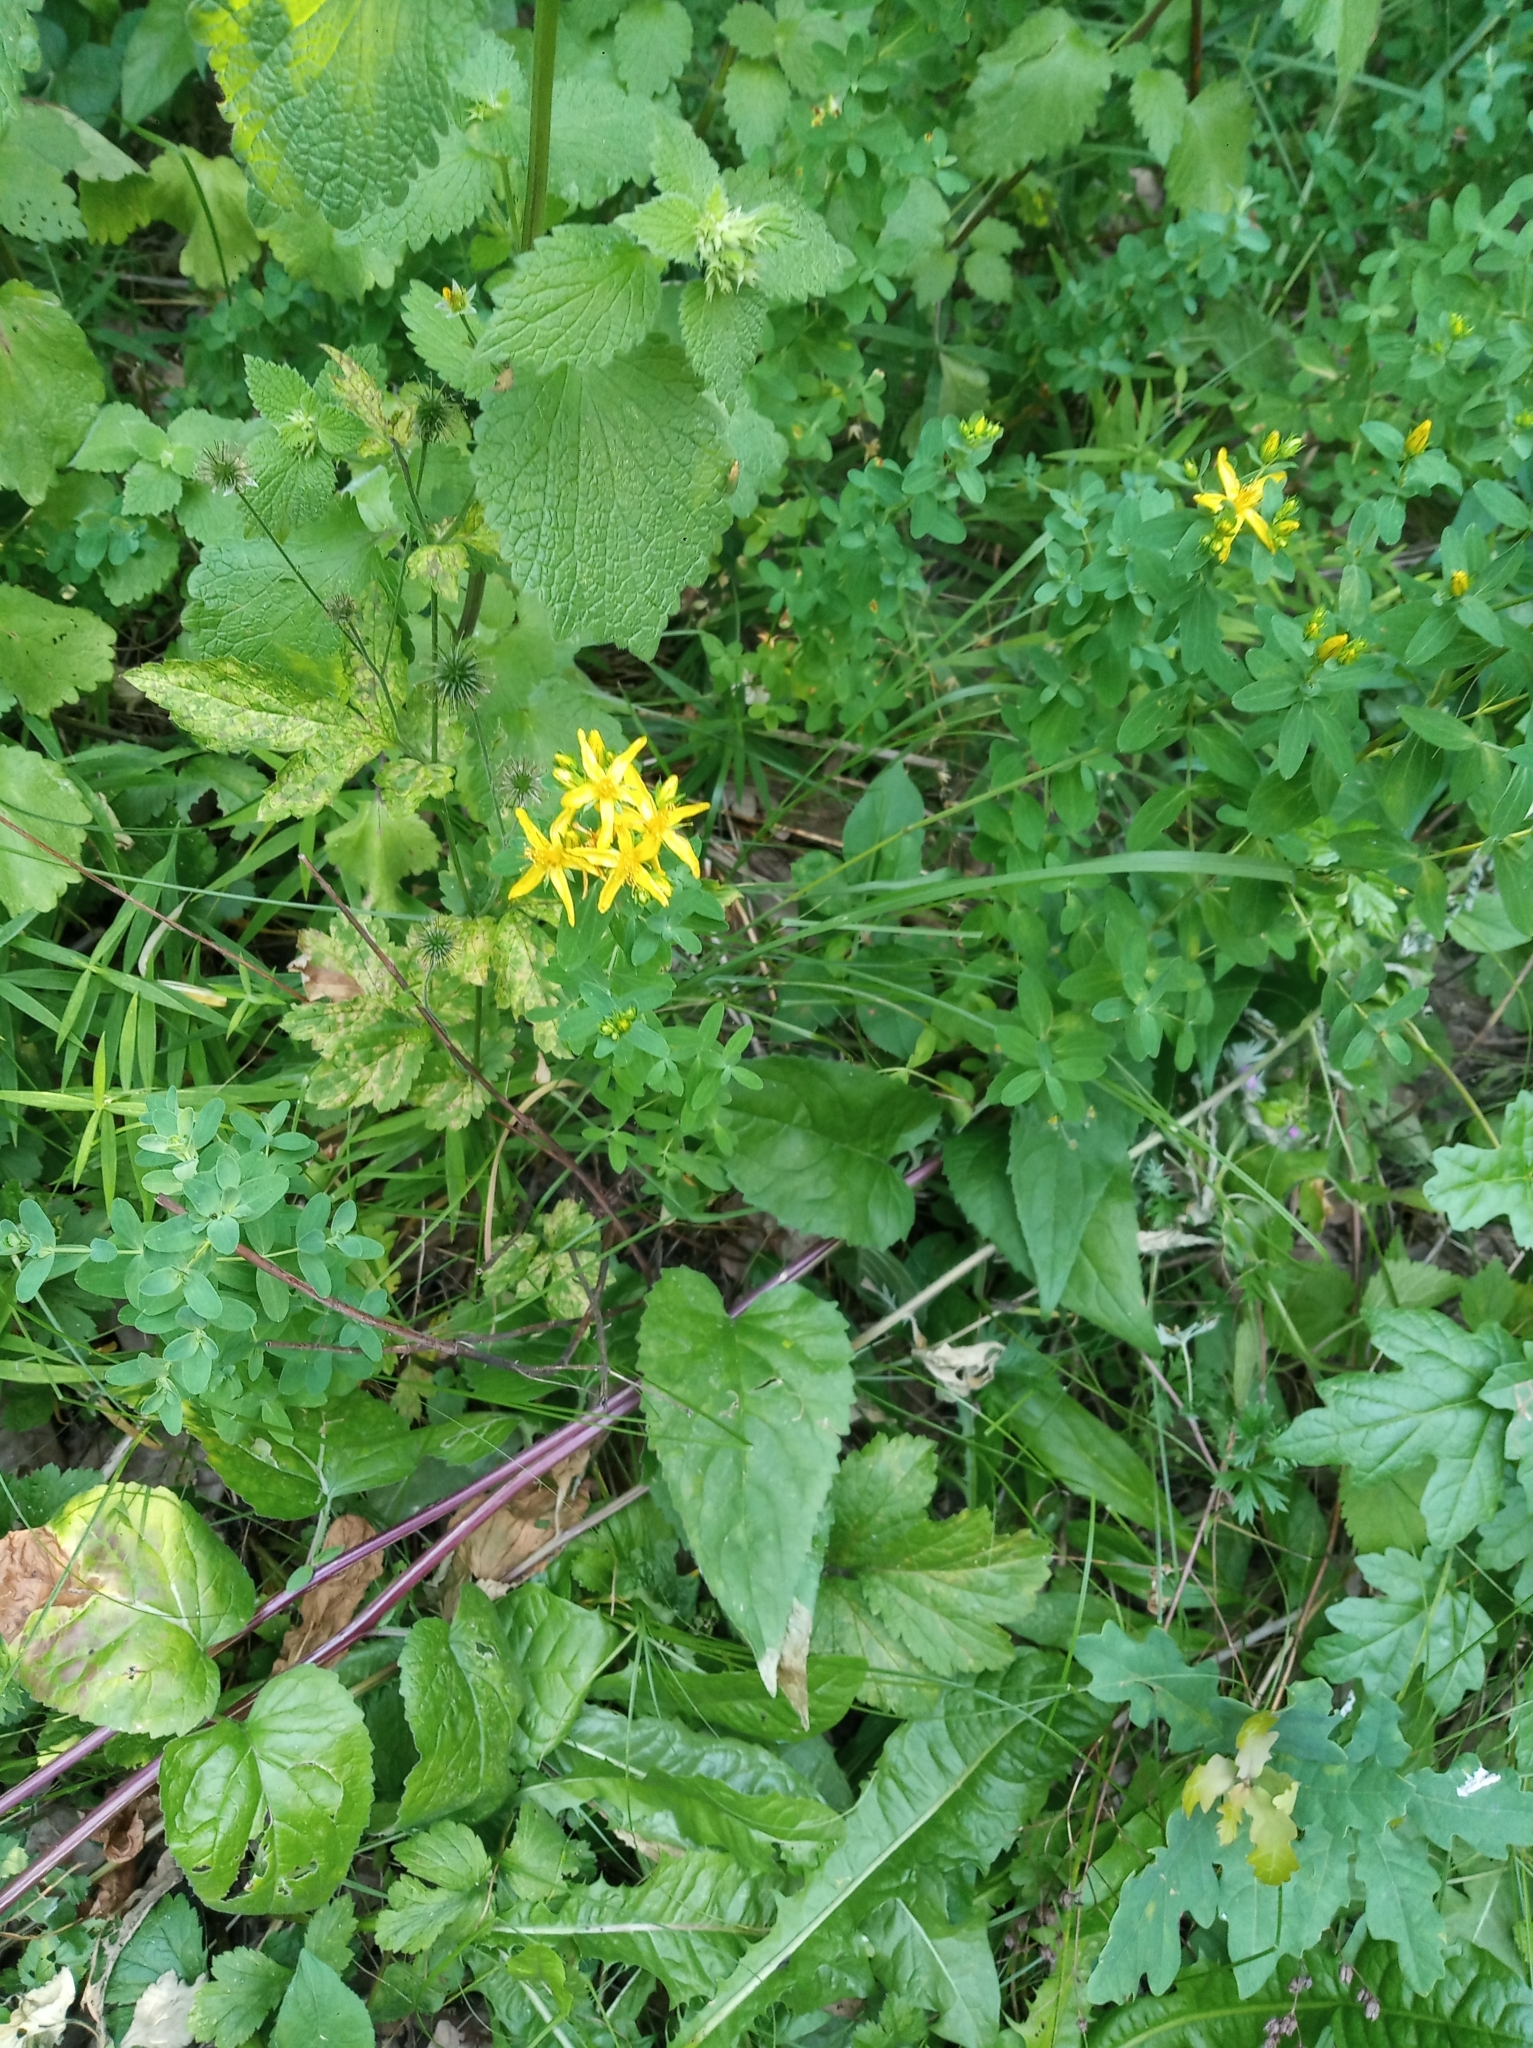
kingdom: Plantae
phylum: Tracheophyta
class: Magnoliopsida
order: Malpighiales
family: Hypericaceae
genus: Hypericum
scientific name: Hypericum perforatum
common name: Common st. johnswort
